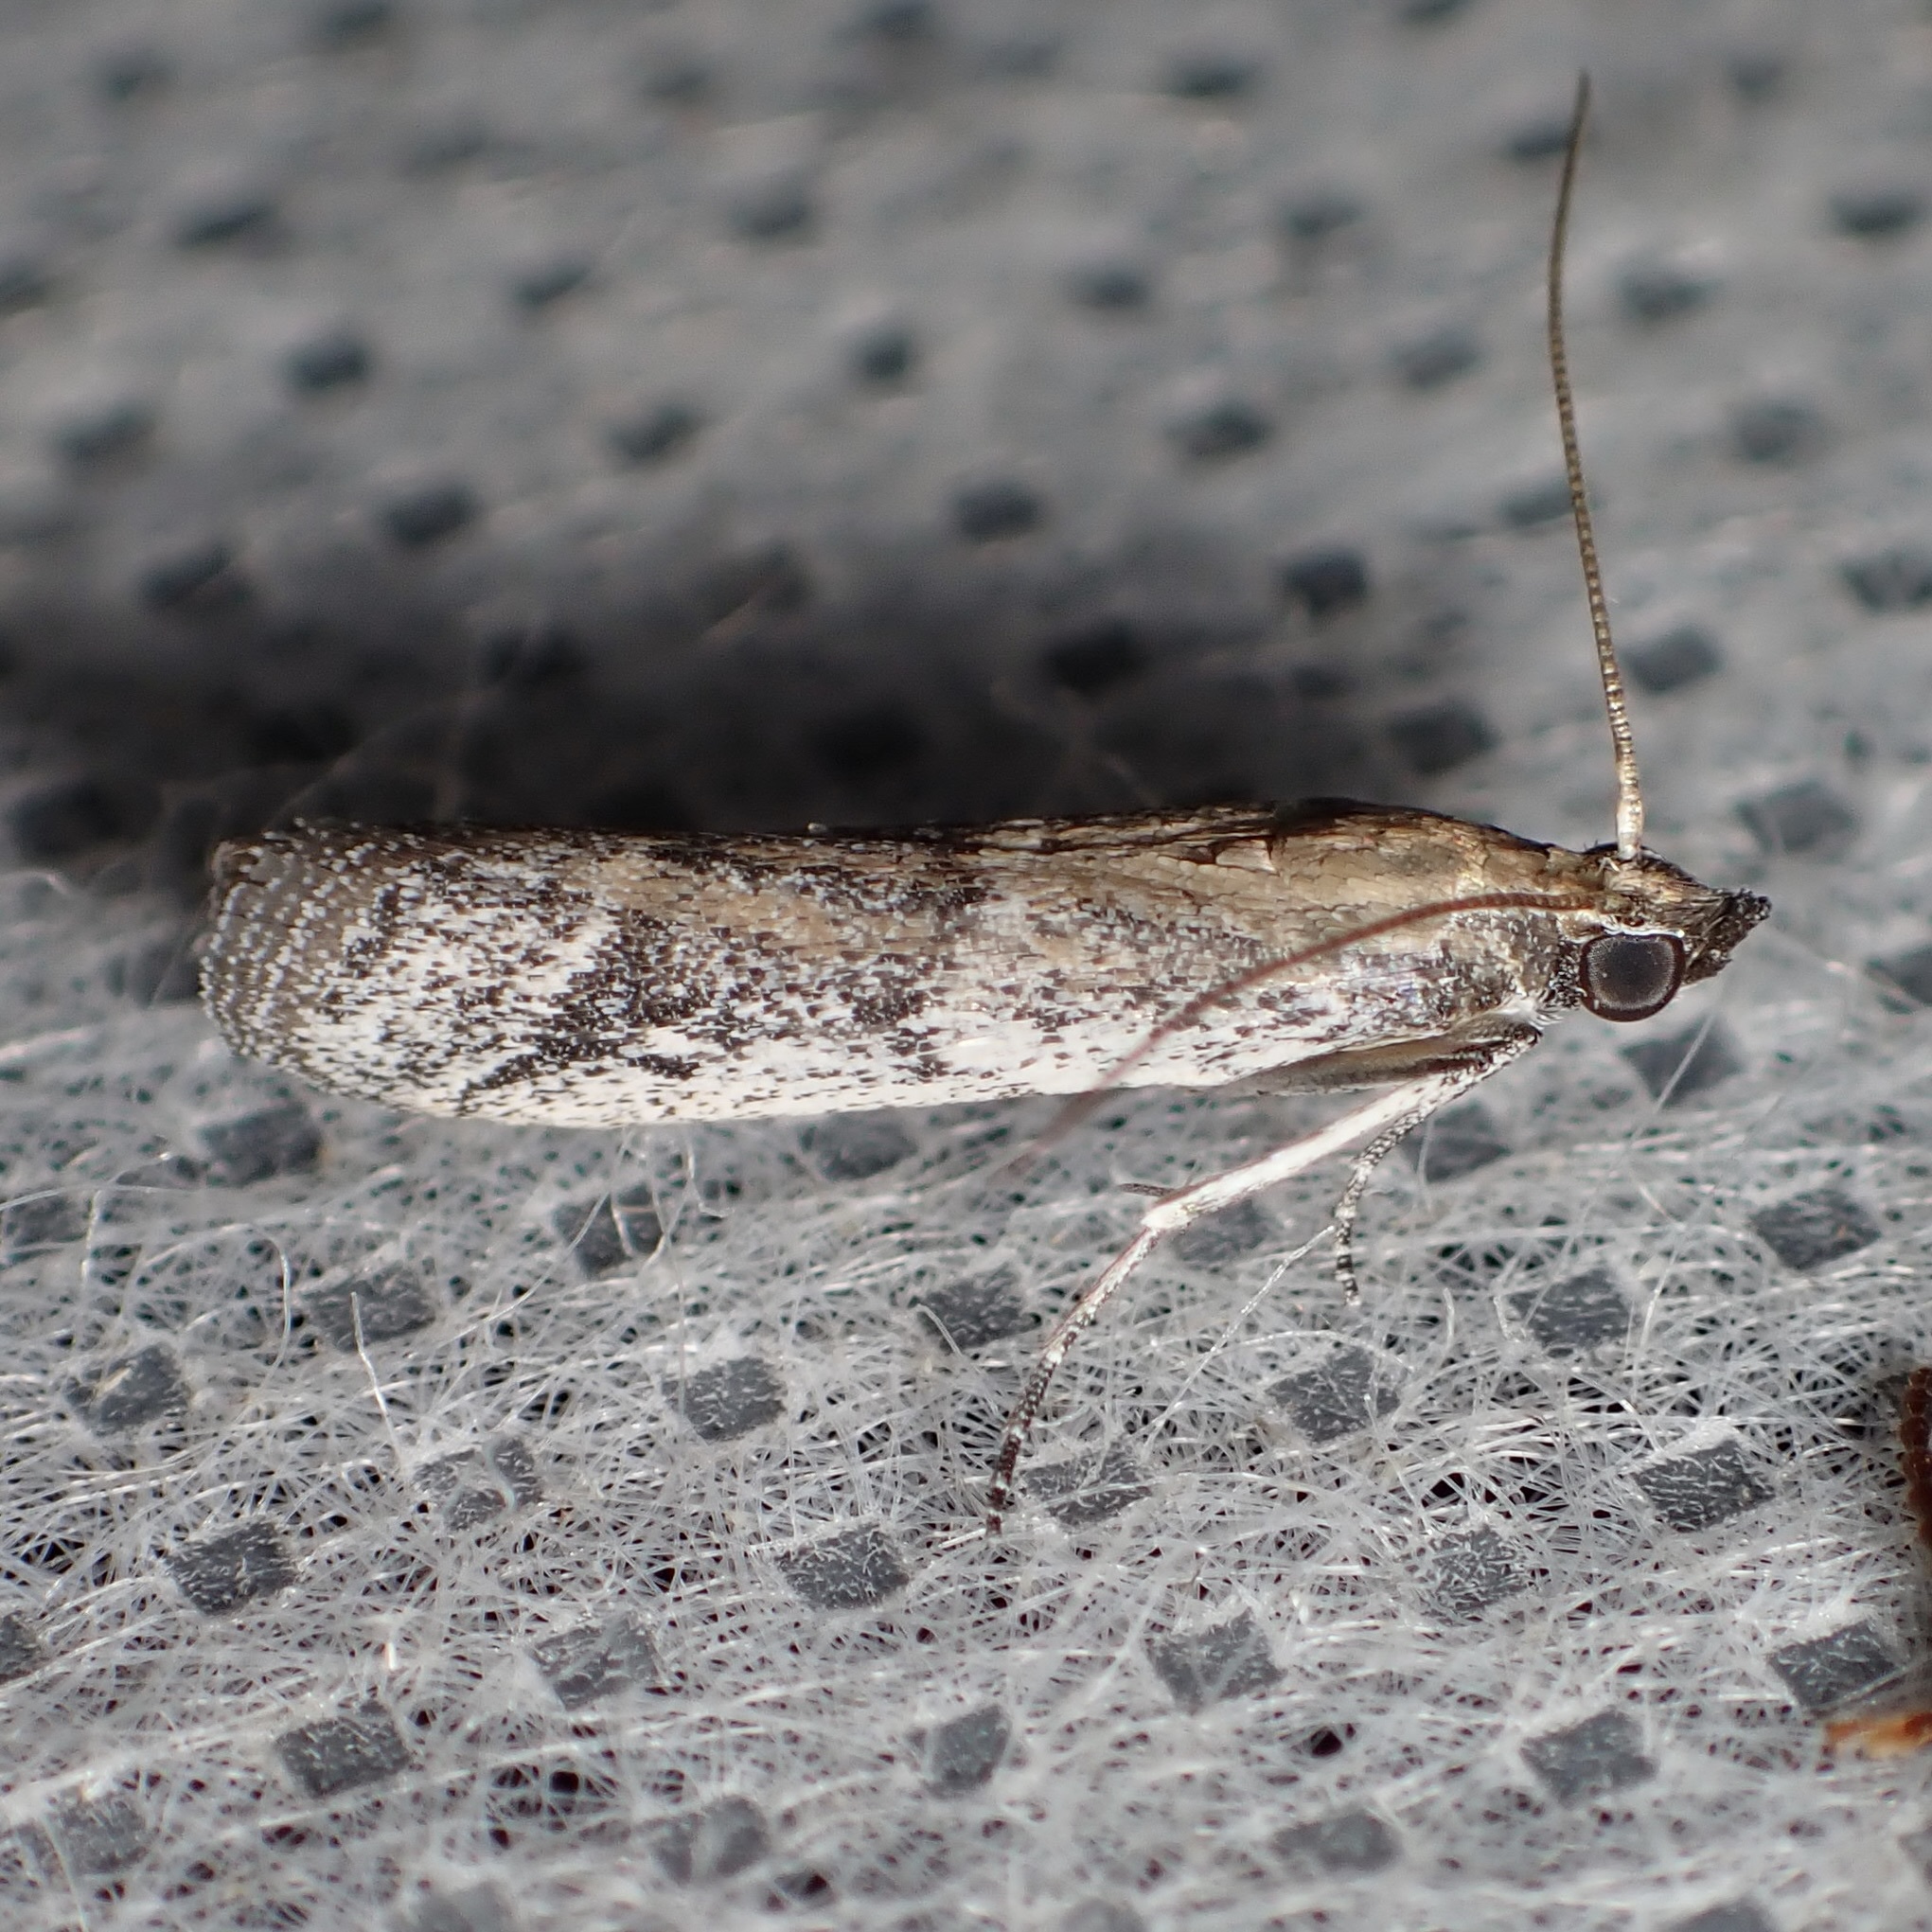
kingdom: Animalia
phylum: Arthropoda
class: Insecta
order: Lepidoptera
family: Pyralidae
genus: Ephestiodes
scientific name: Ephestiodes gilvescentella
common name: Moth
